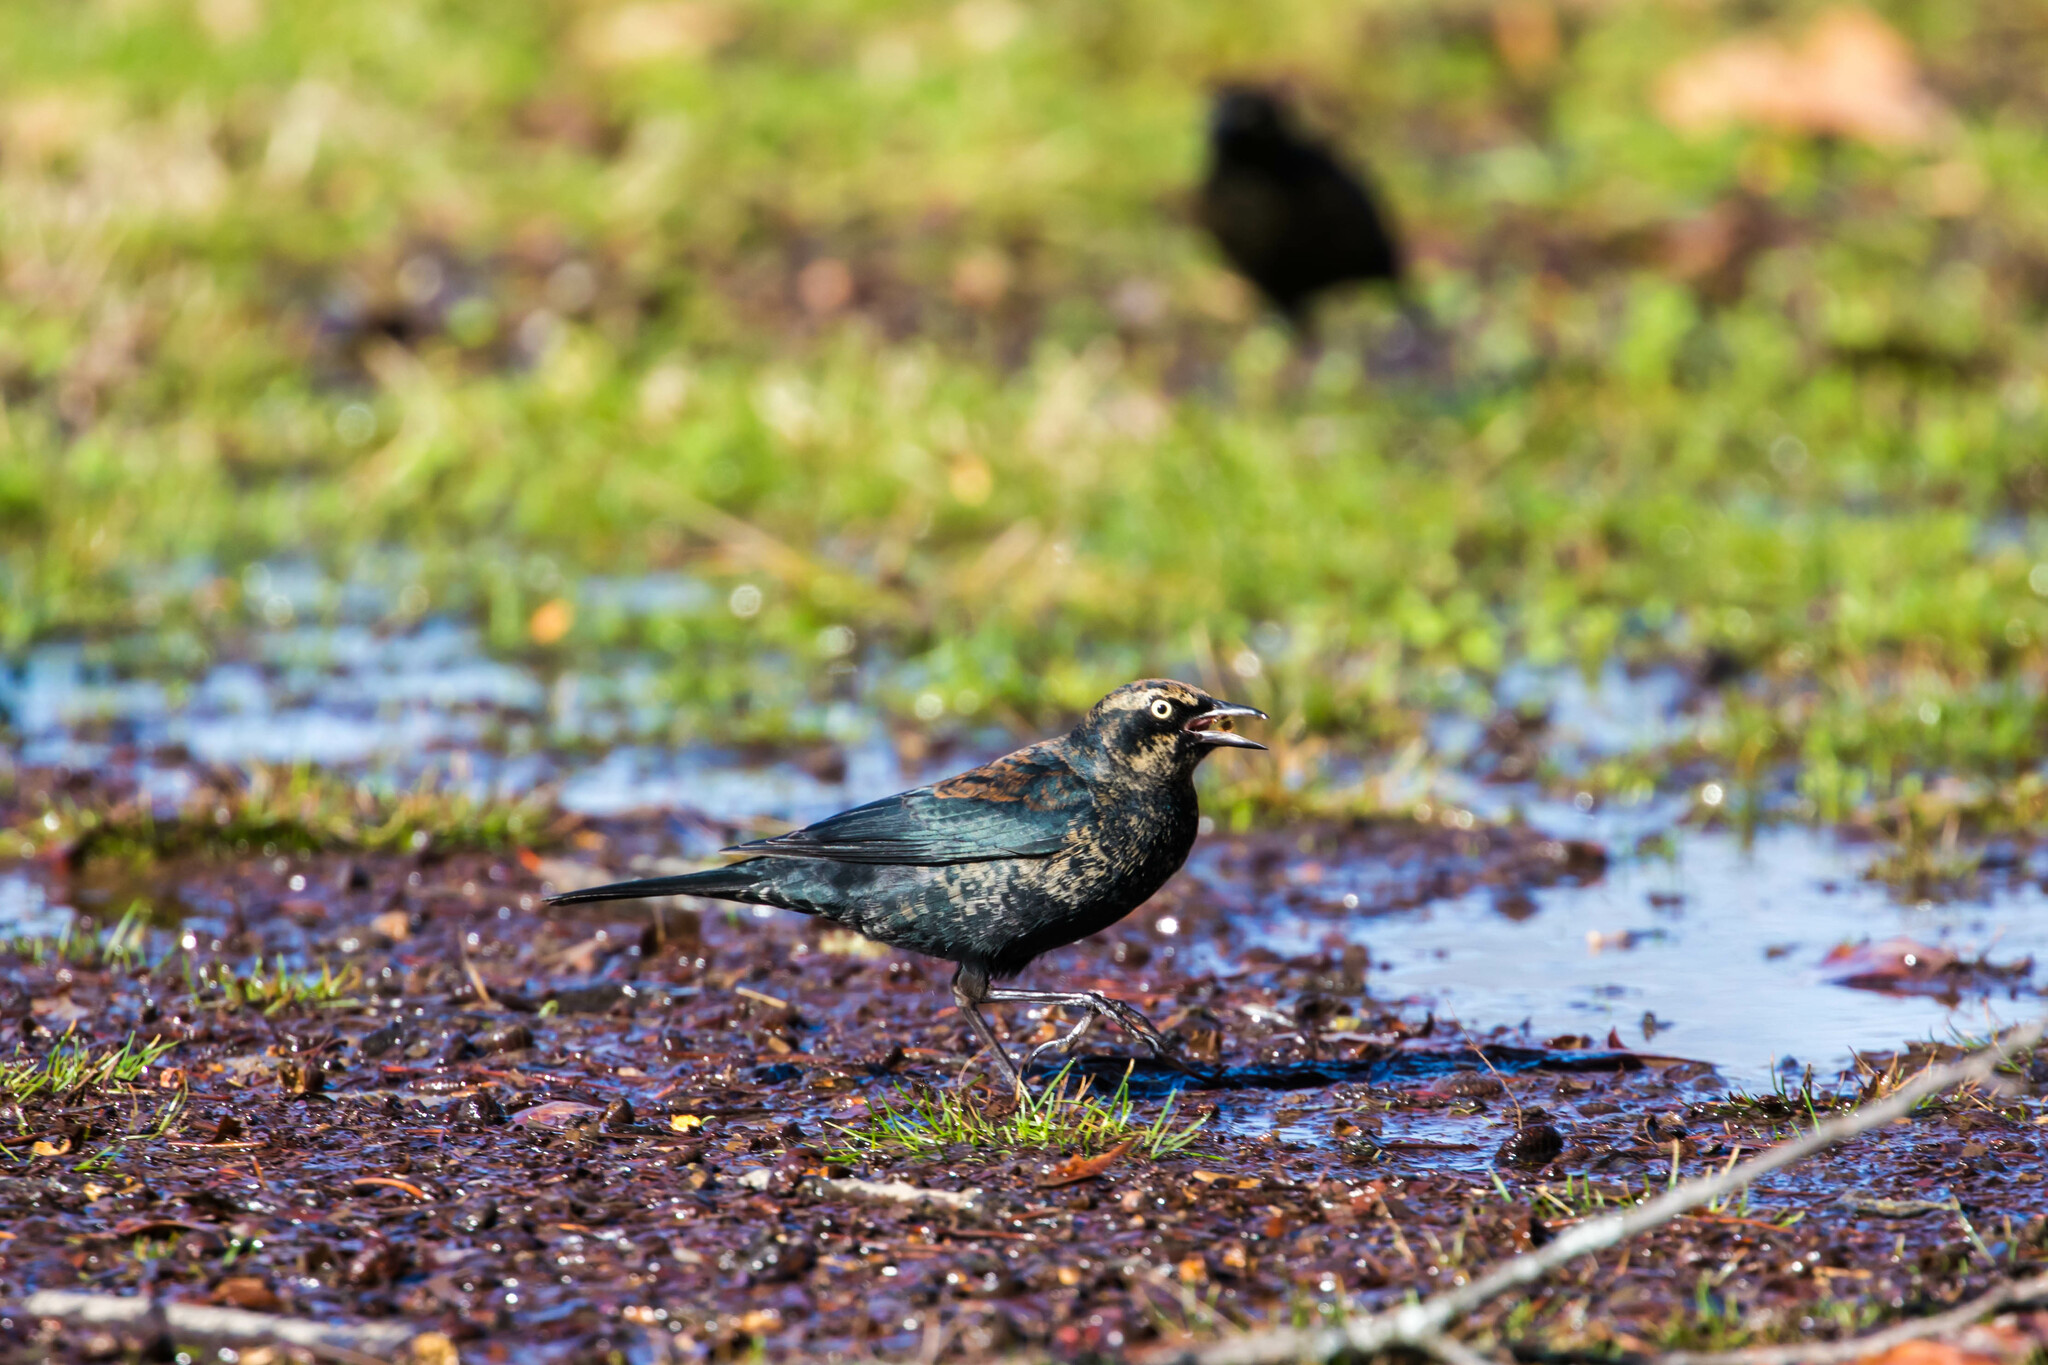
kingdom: Animalia
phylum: Chordata
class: Aves
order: Passeriformes
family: Icteridae
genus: Euphagus
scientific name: Euphagus carolinus
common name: Rusty blackbird
